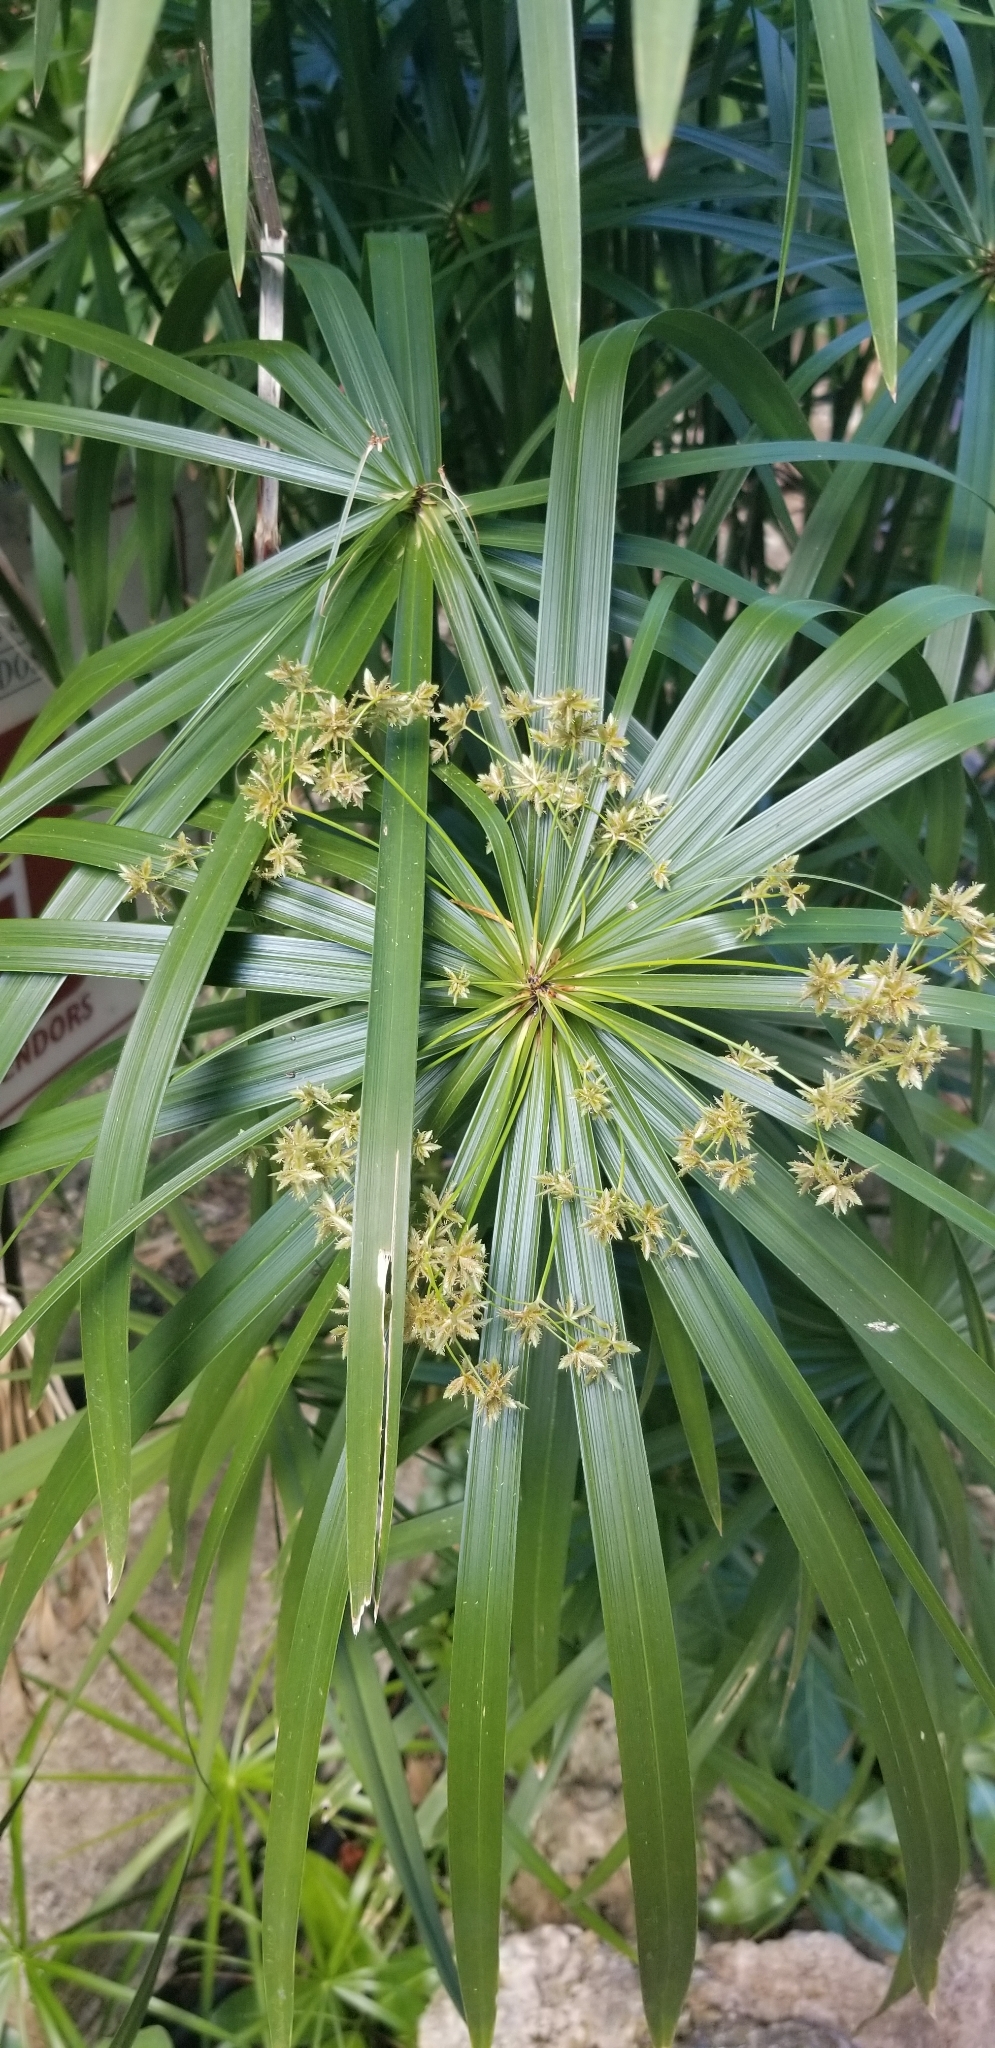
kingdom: Plantae
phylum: Tracheophyta
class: Liliopsida
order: Poales
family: Cyperaceae
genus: Cyperus
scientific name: Cyperus alternifolius
